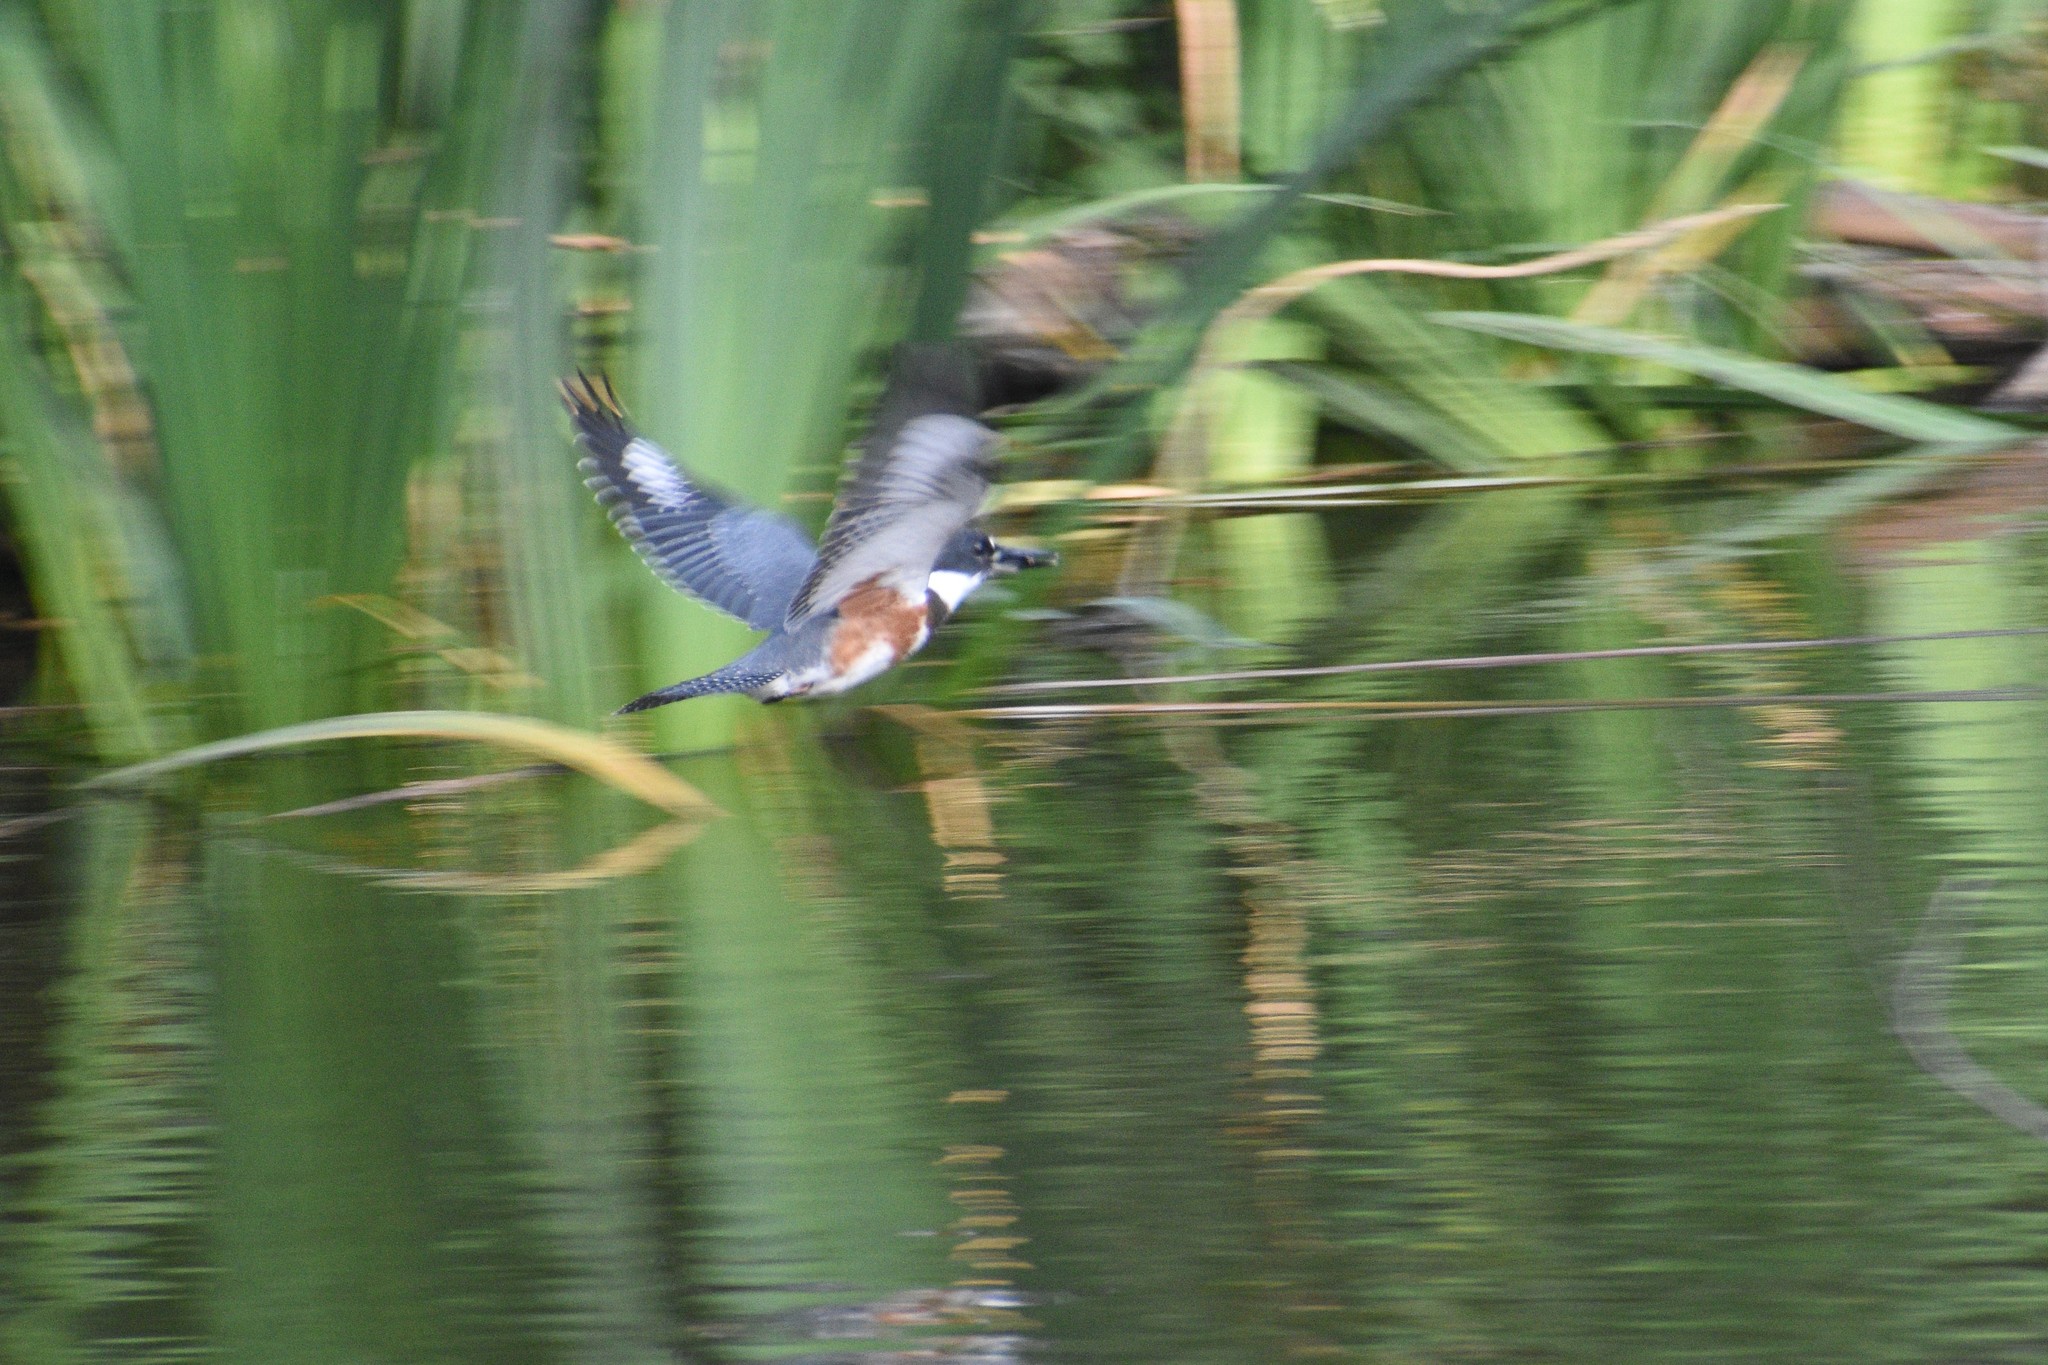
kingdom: Animalia
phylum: Chordata
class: Aves
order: Coraciiformes
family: Alcedinidae
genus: Megaceryle
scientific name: Megaceryle alcyon
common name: Belted kingfisher
